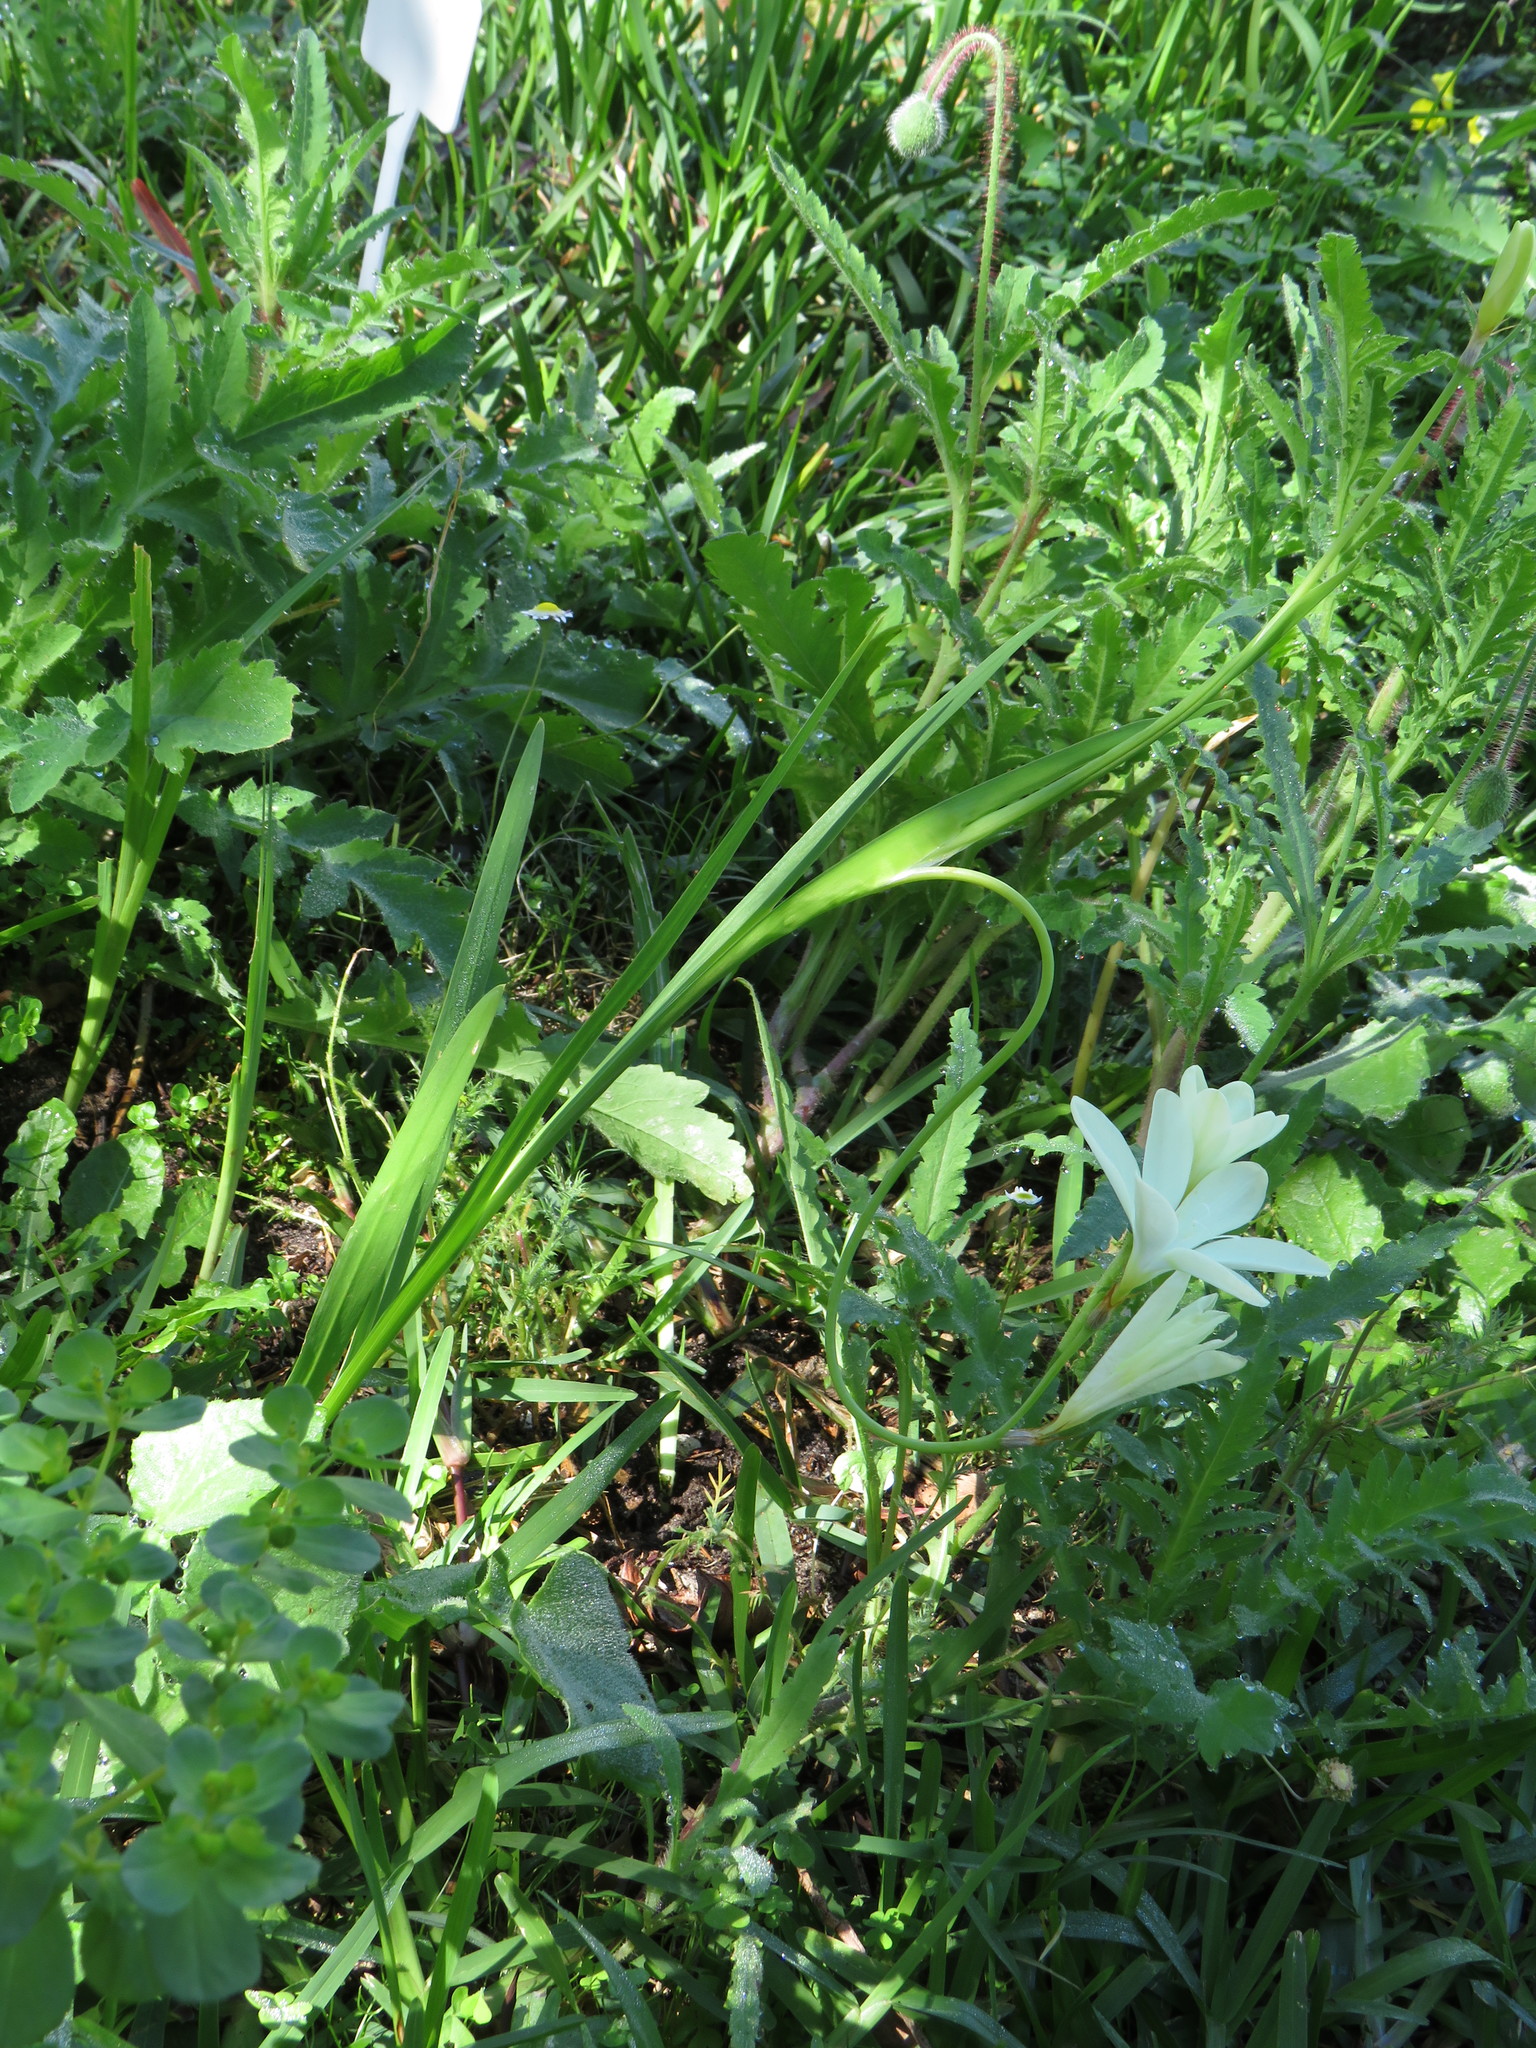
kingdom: Plantae
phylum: Tracheophyta
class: Liliopsida
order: Asparagales
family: Iridaceae
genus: Sparaxis
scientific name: Sparaxis bulbifera
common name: Harlequin-flower
